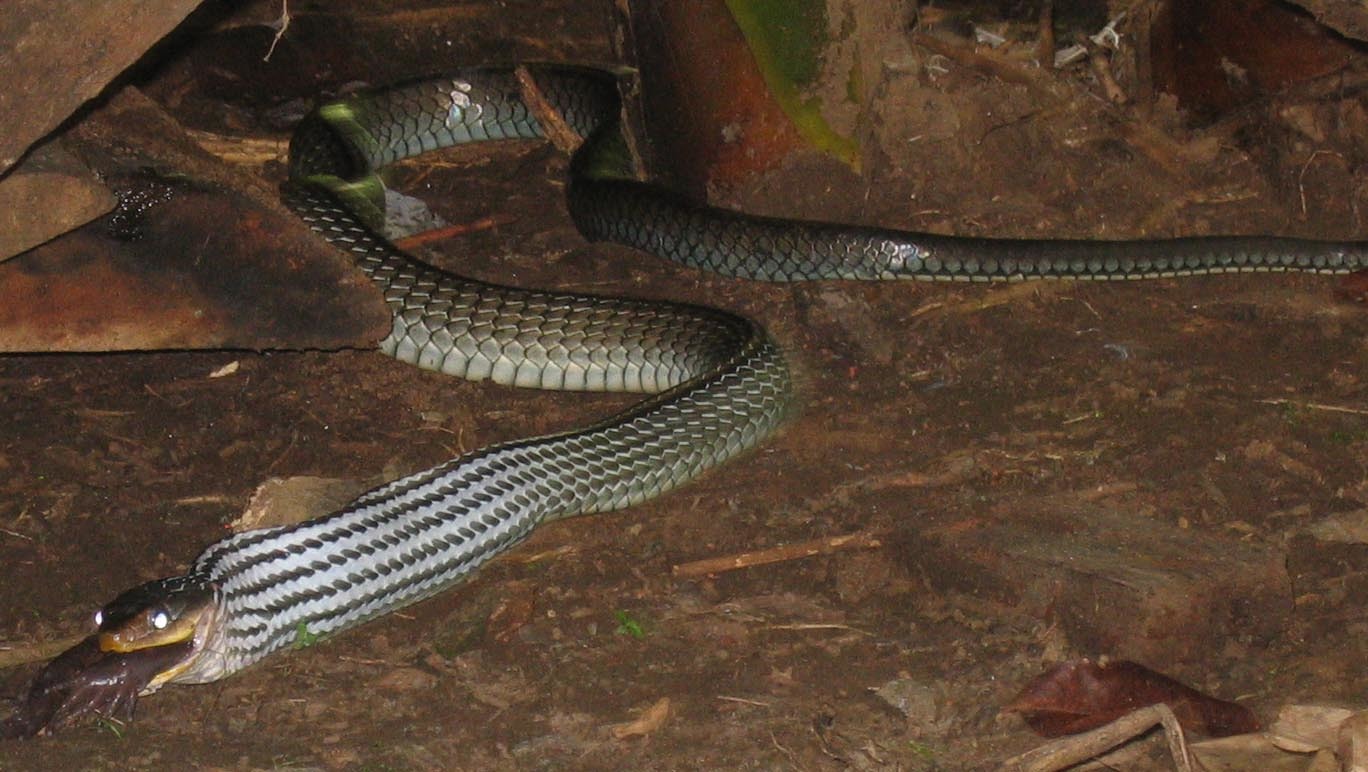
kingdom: Animalia
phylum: Chordata
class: Squamata
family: Colubridae
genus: Chironius
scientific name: Chironius flavopictus
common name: Sipo
